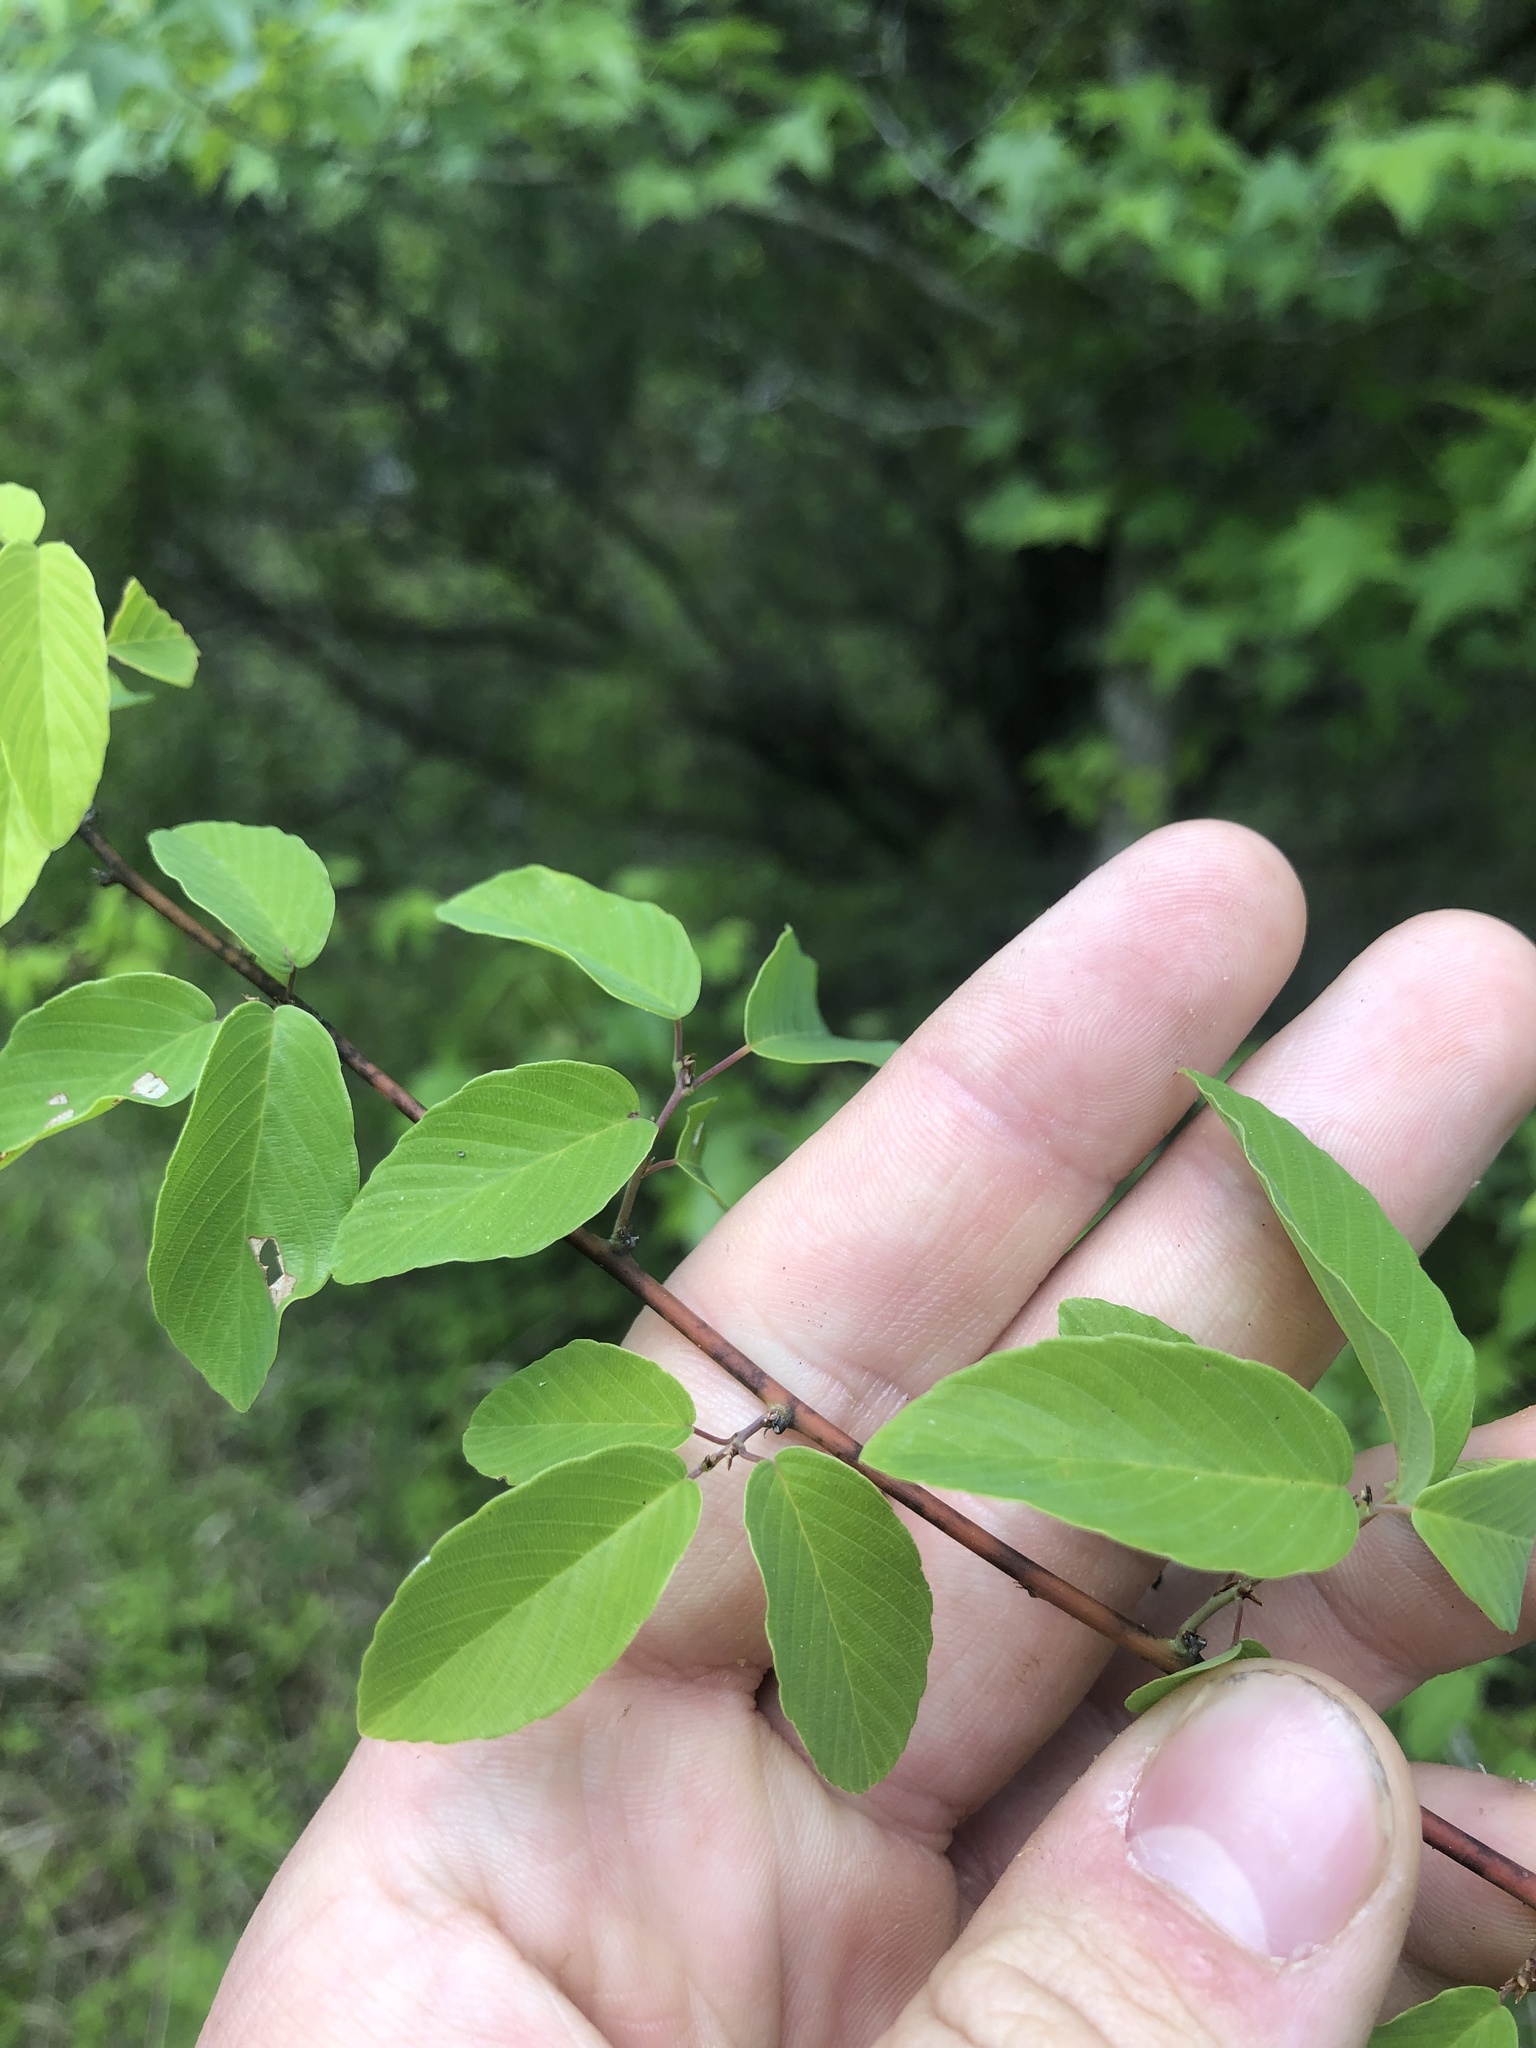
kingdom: Plantae
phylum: Tracheophyta
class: Magnoliopsida
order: Rosales
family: Rhamnaceae
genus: Berchemia
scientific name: Berchemia scandens
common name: Supplejack
